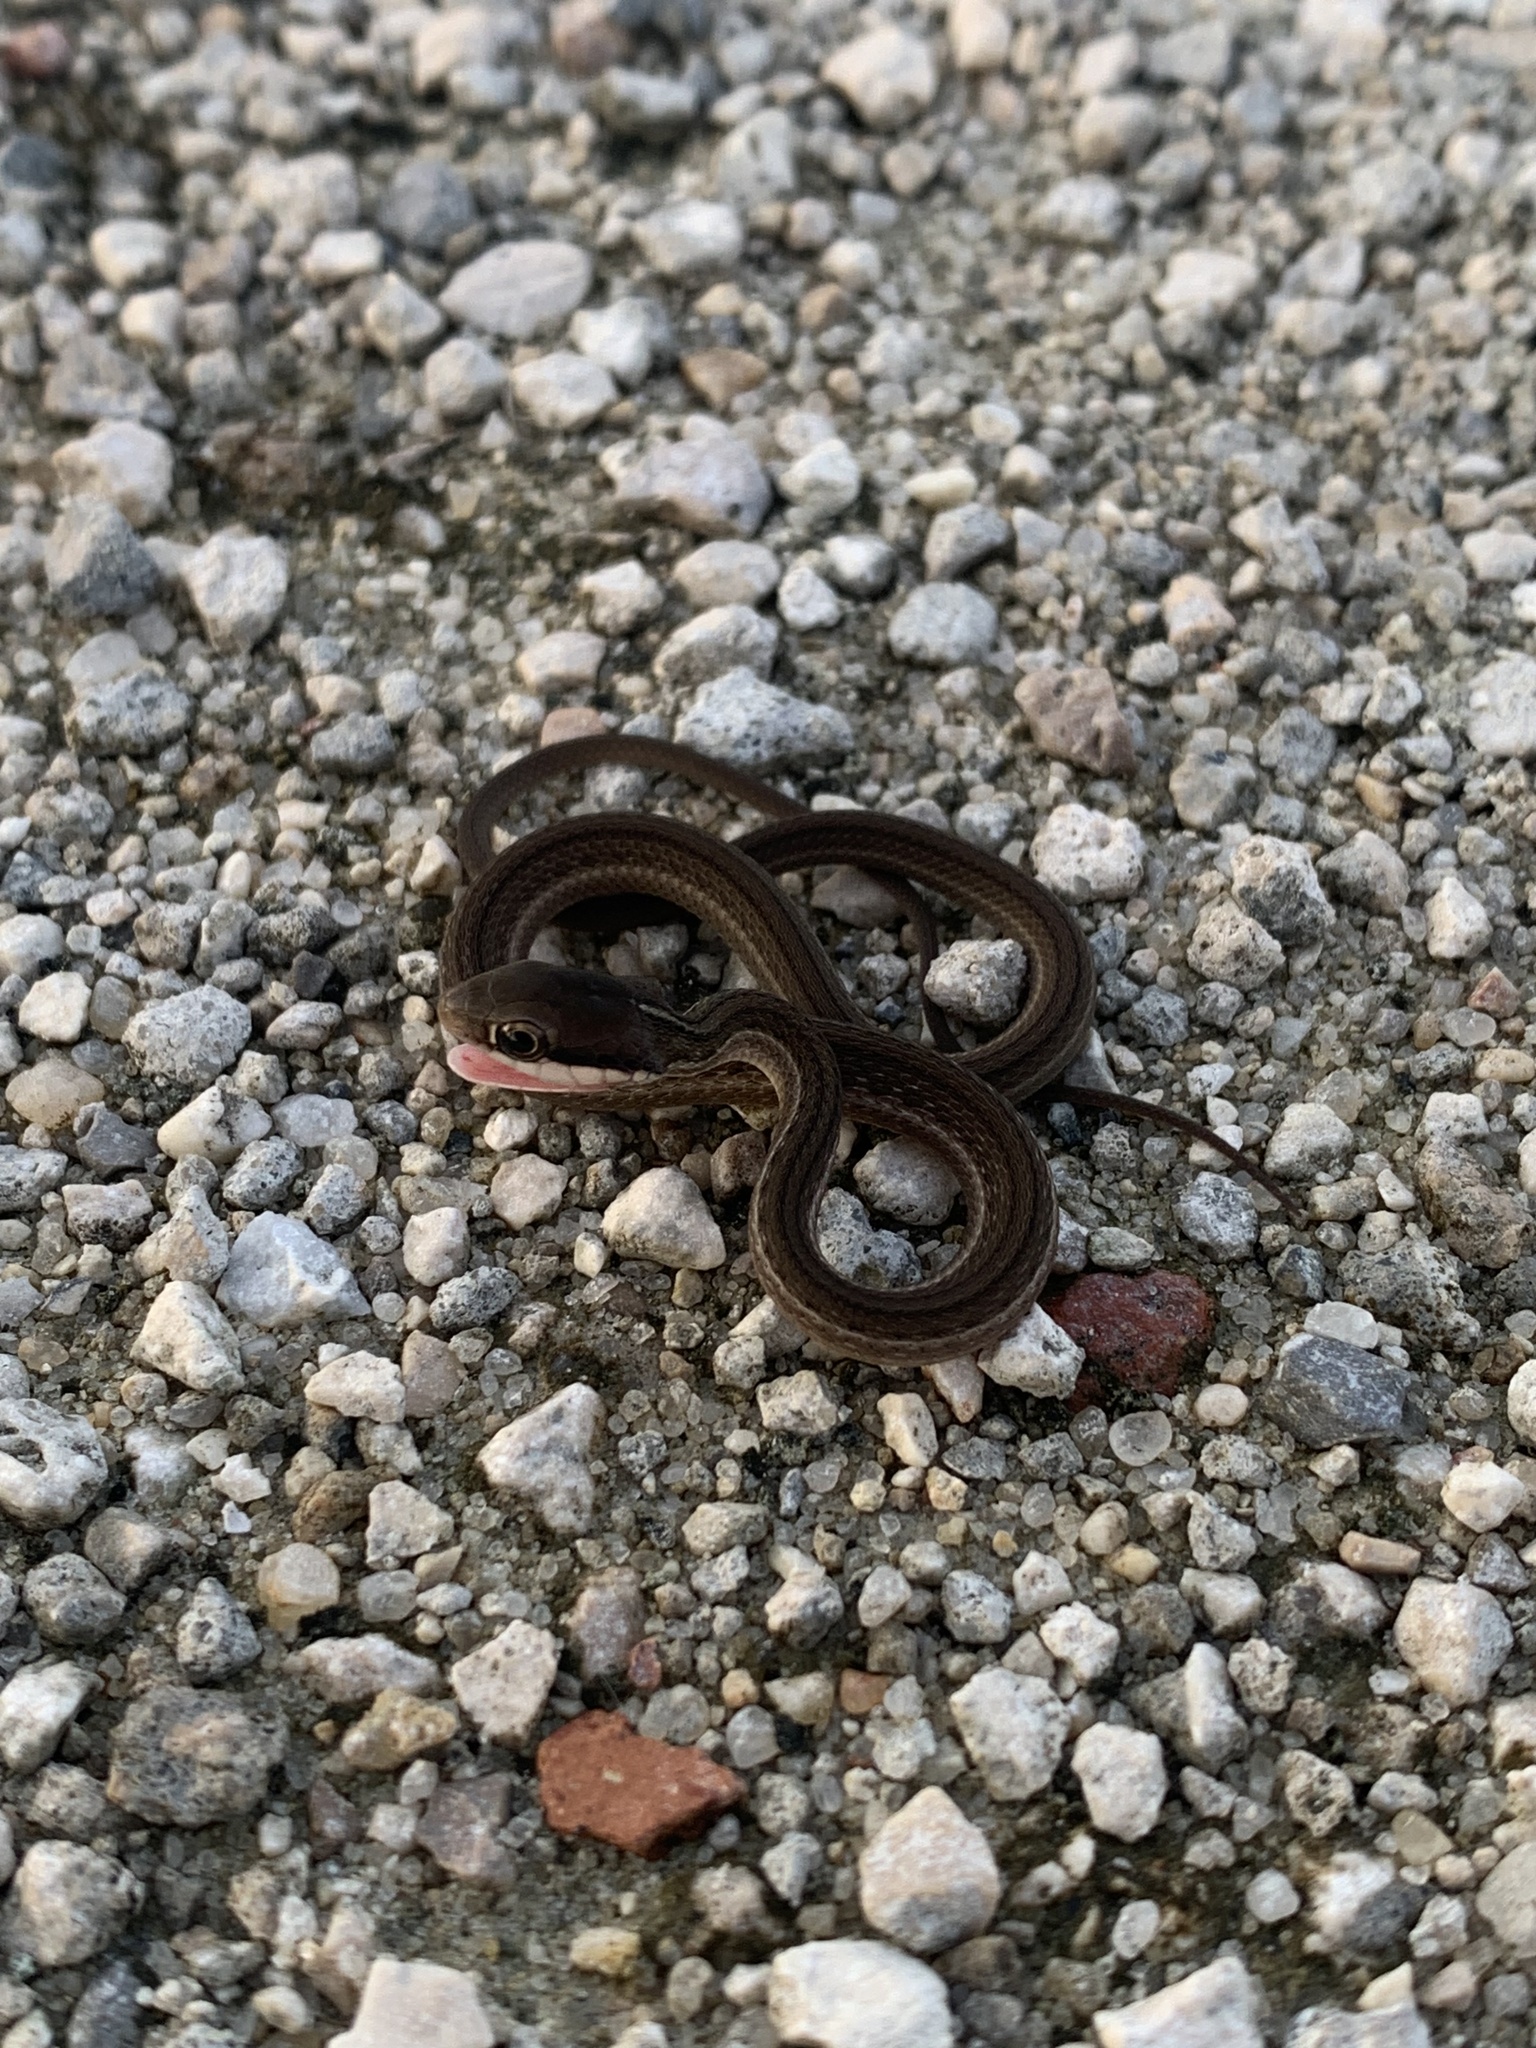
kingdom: Animalia
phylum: Chordata
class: Squamata
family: Colubridae
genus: Thamnophis
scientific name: Thamnophis saurita
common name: Eastern ribbonsnake
